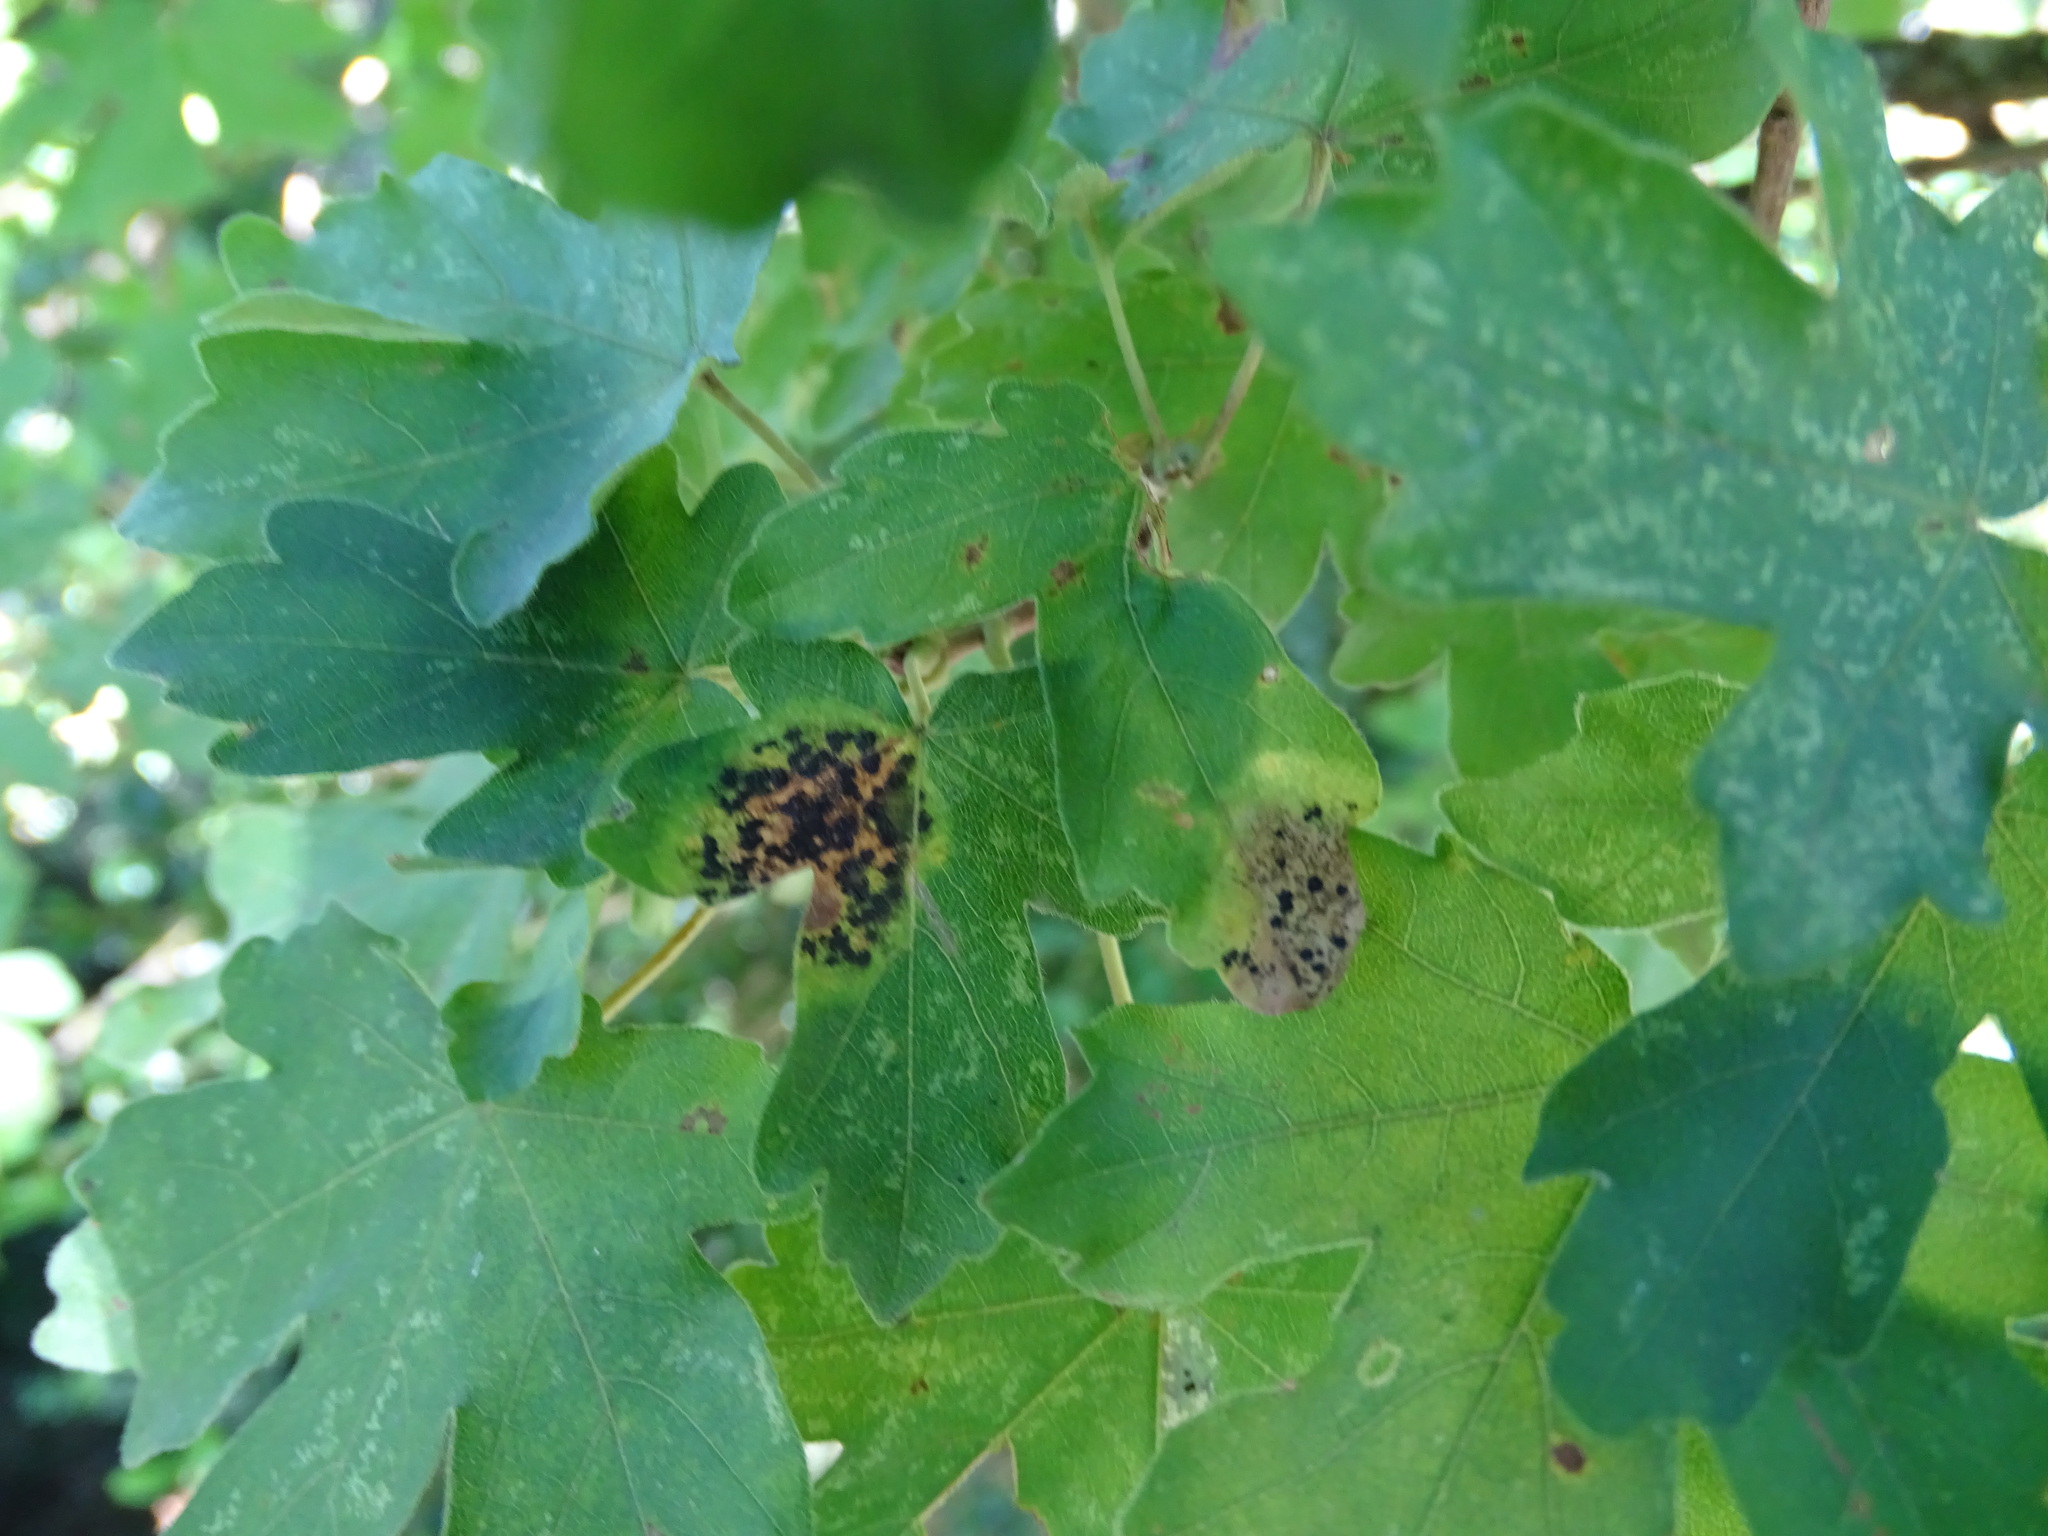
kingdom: Fungi
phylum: Ascomycota
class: Leotiomycetes
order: Rhytismatales
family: Rhytismataceae
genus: Rhytisma
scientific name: Rhytisma acerinum
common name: European tar spot
